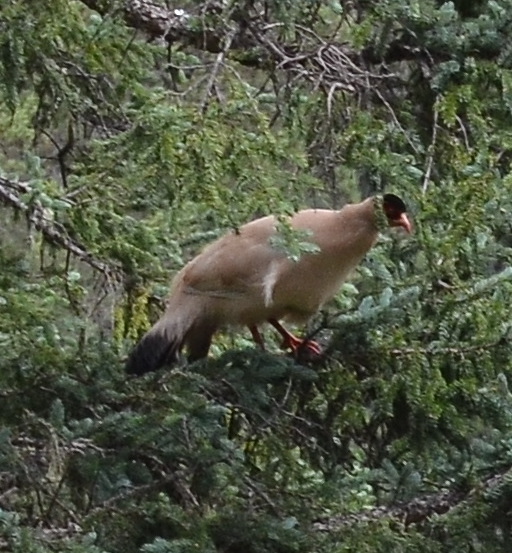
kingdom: Animalia
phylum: Chordata
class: Aves
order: Galliformes
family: Phasianidae
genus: Crossoptilon
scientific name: Crossoptilon crossoptilon
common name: White eared-pheasant
